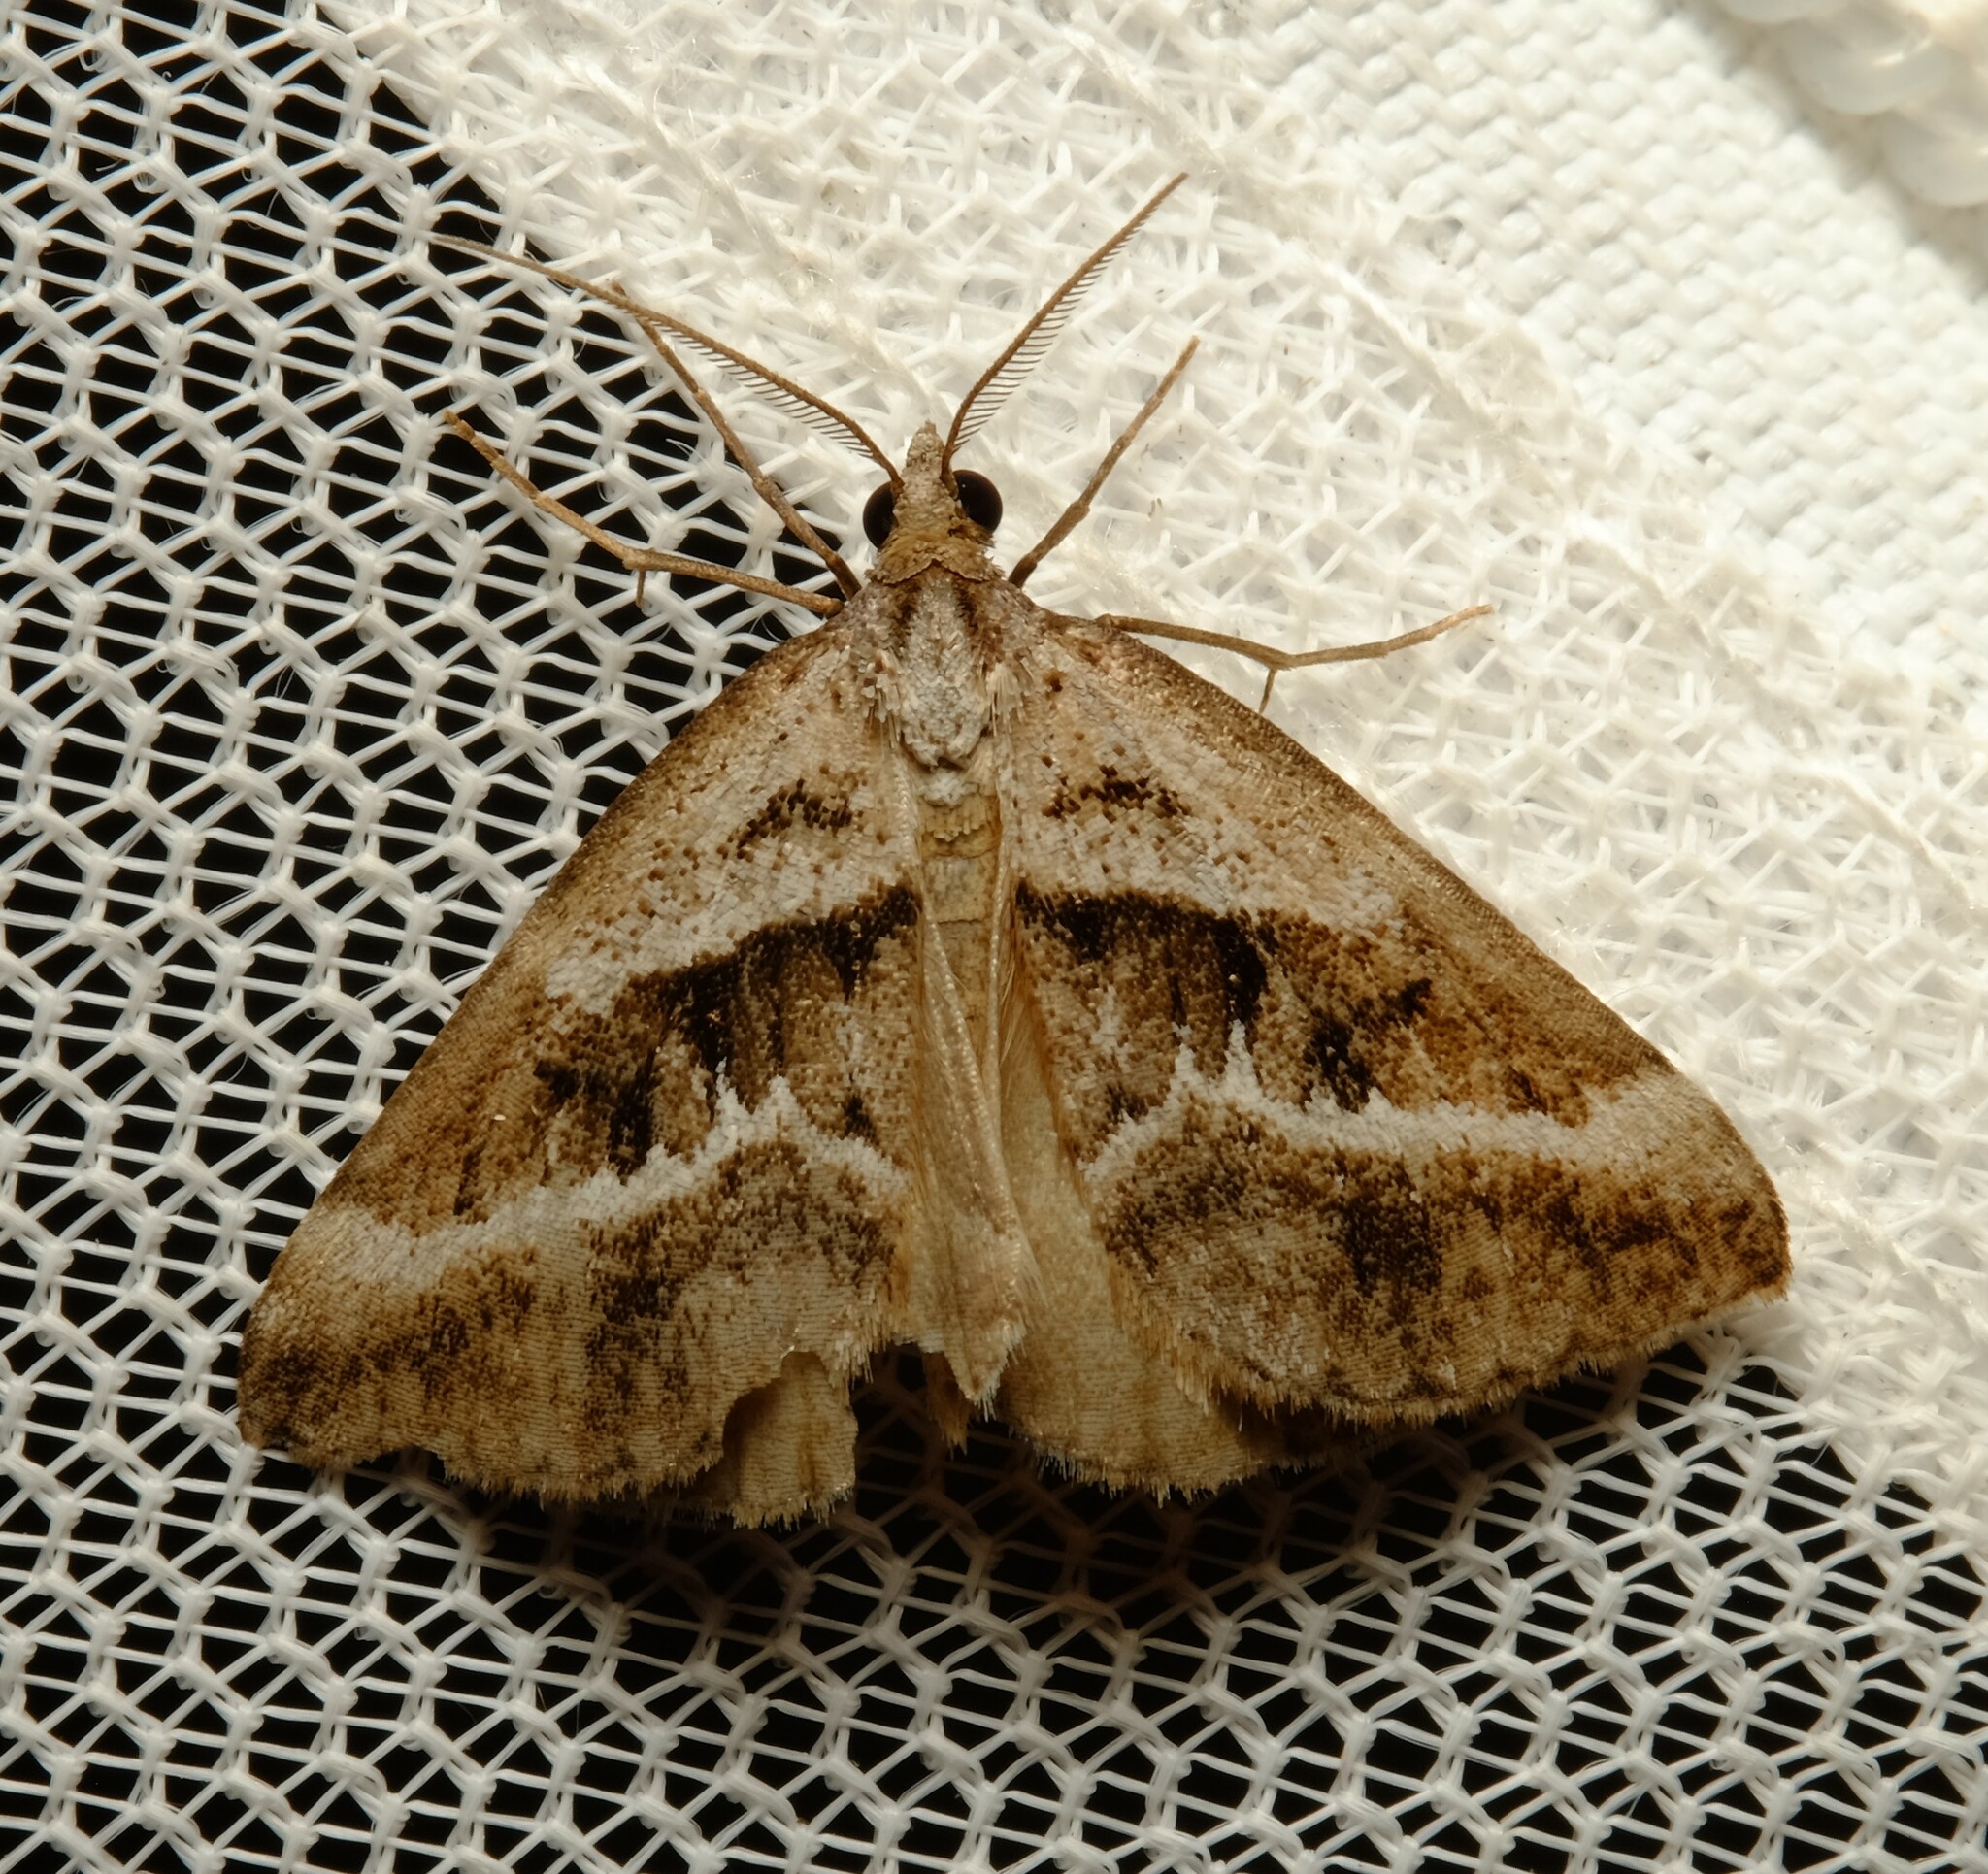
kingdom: Animalia
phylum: Arthropoda
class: Insecta
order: Lepidoptera
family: Geometridae
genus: Dichromodes
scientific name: Dichromodes stilbiata
